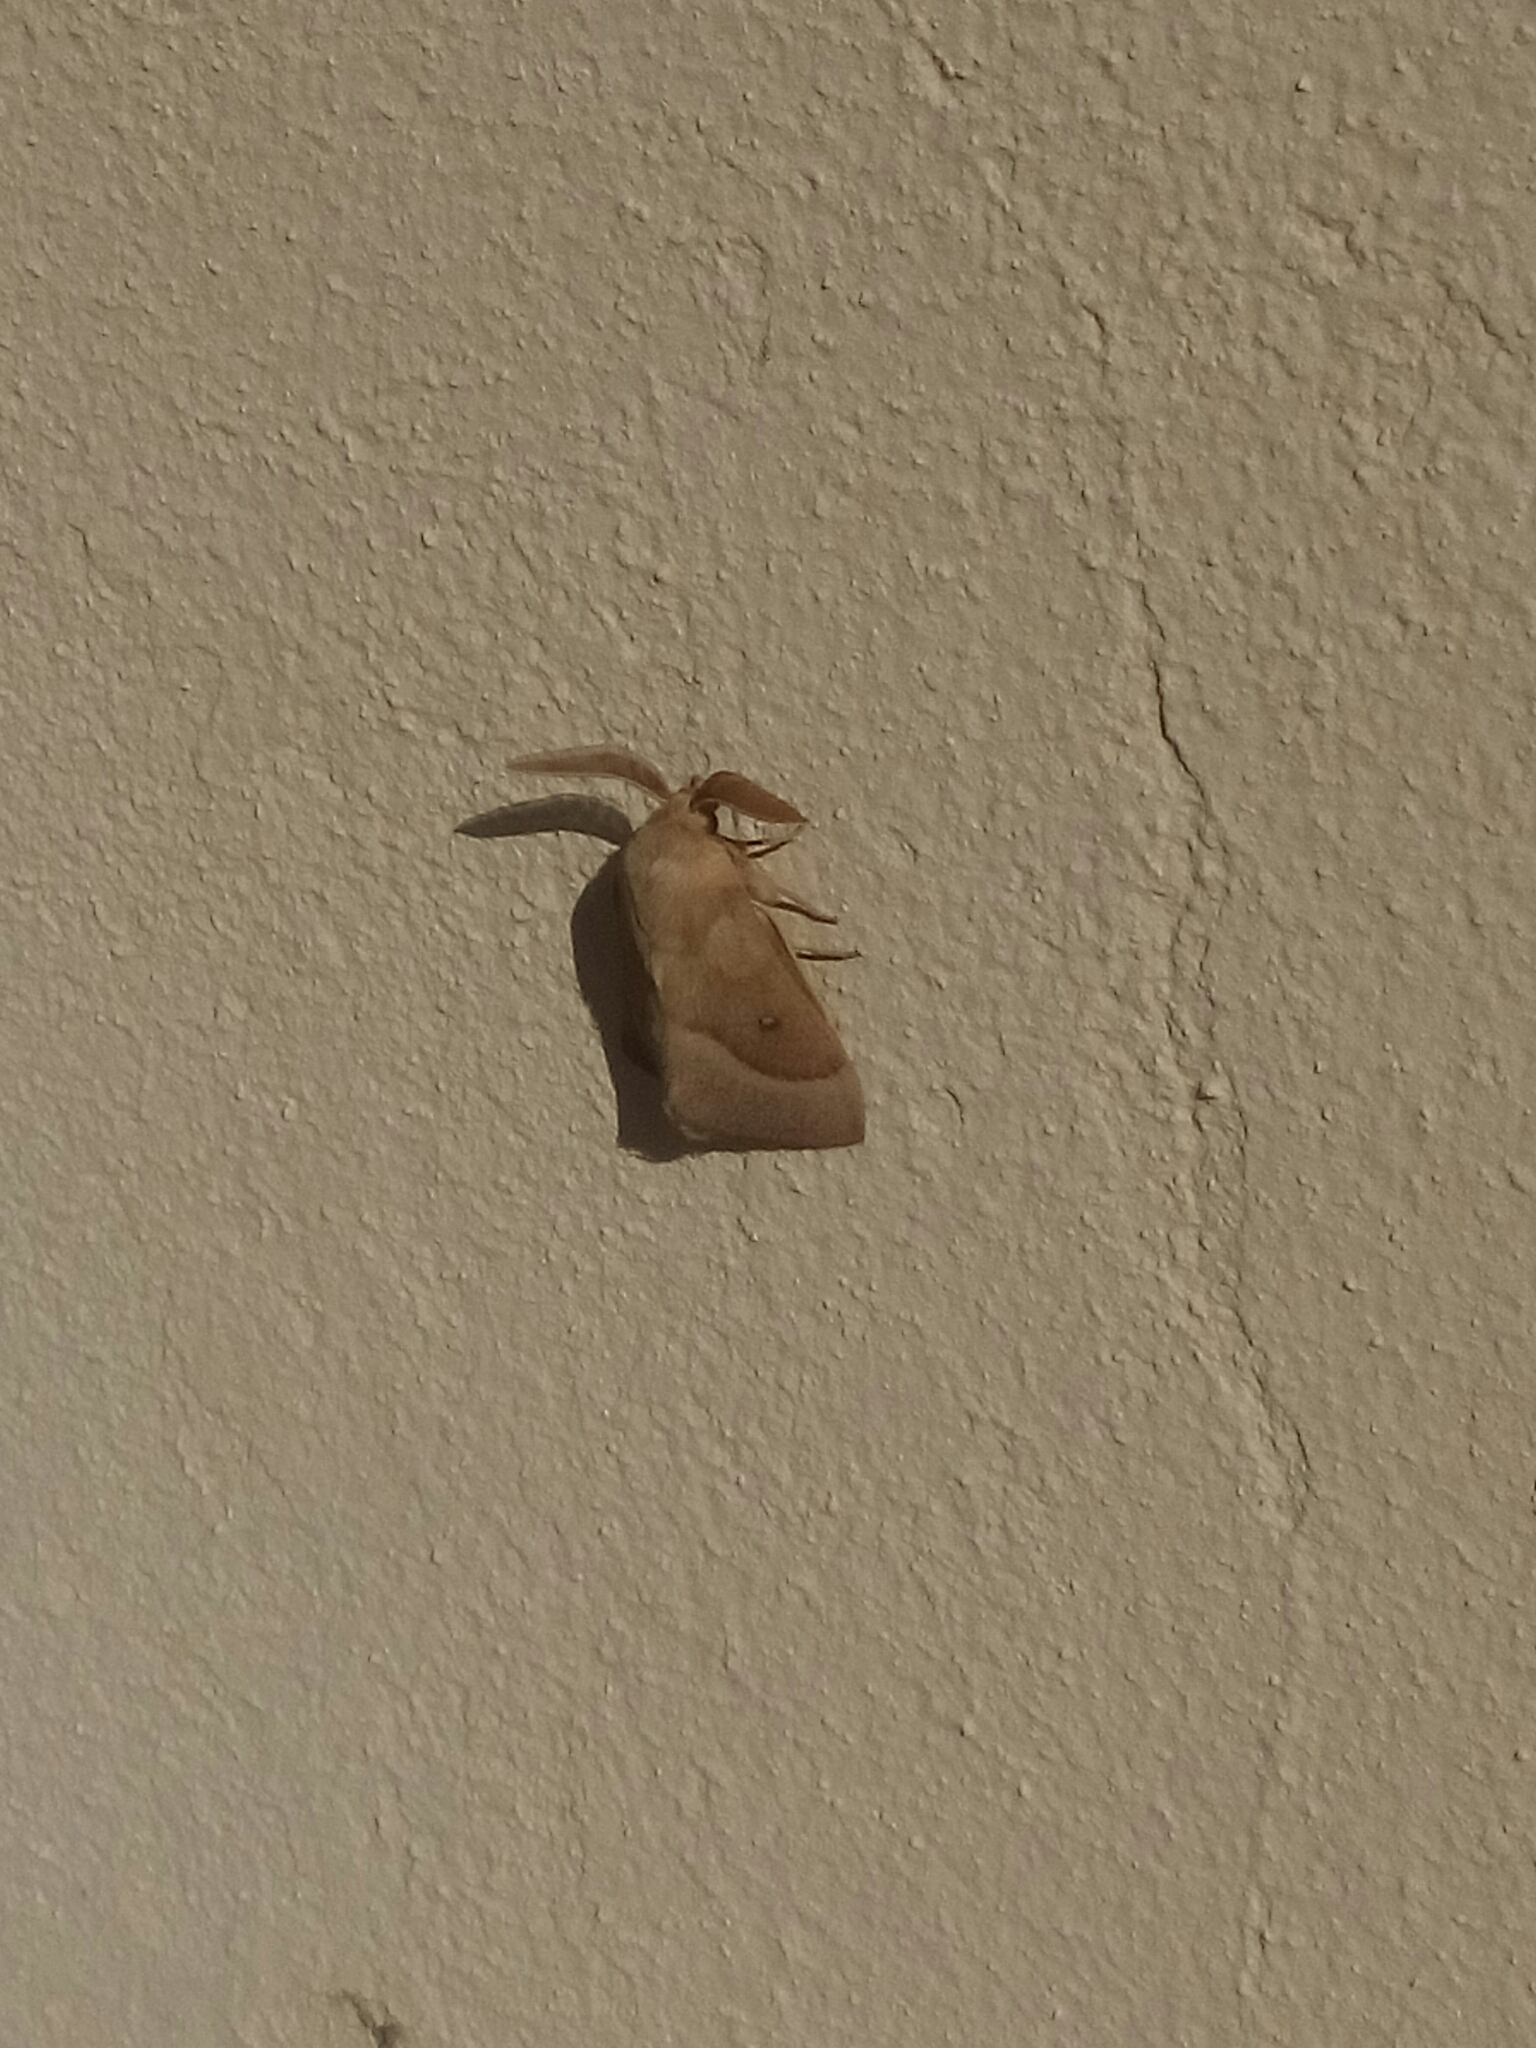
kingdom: Animalia
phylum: Arthropoda
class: Insecta
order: Lepidoptera
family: Lasiocampidae
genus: Lasiocampa
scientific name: Lasiocampa trifolii
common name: Grass eggar
